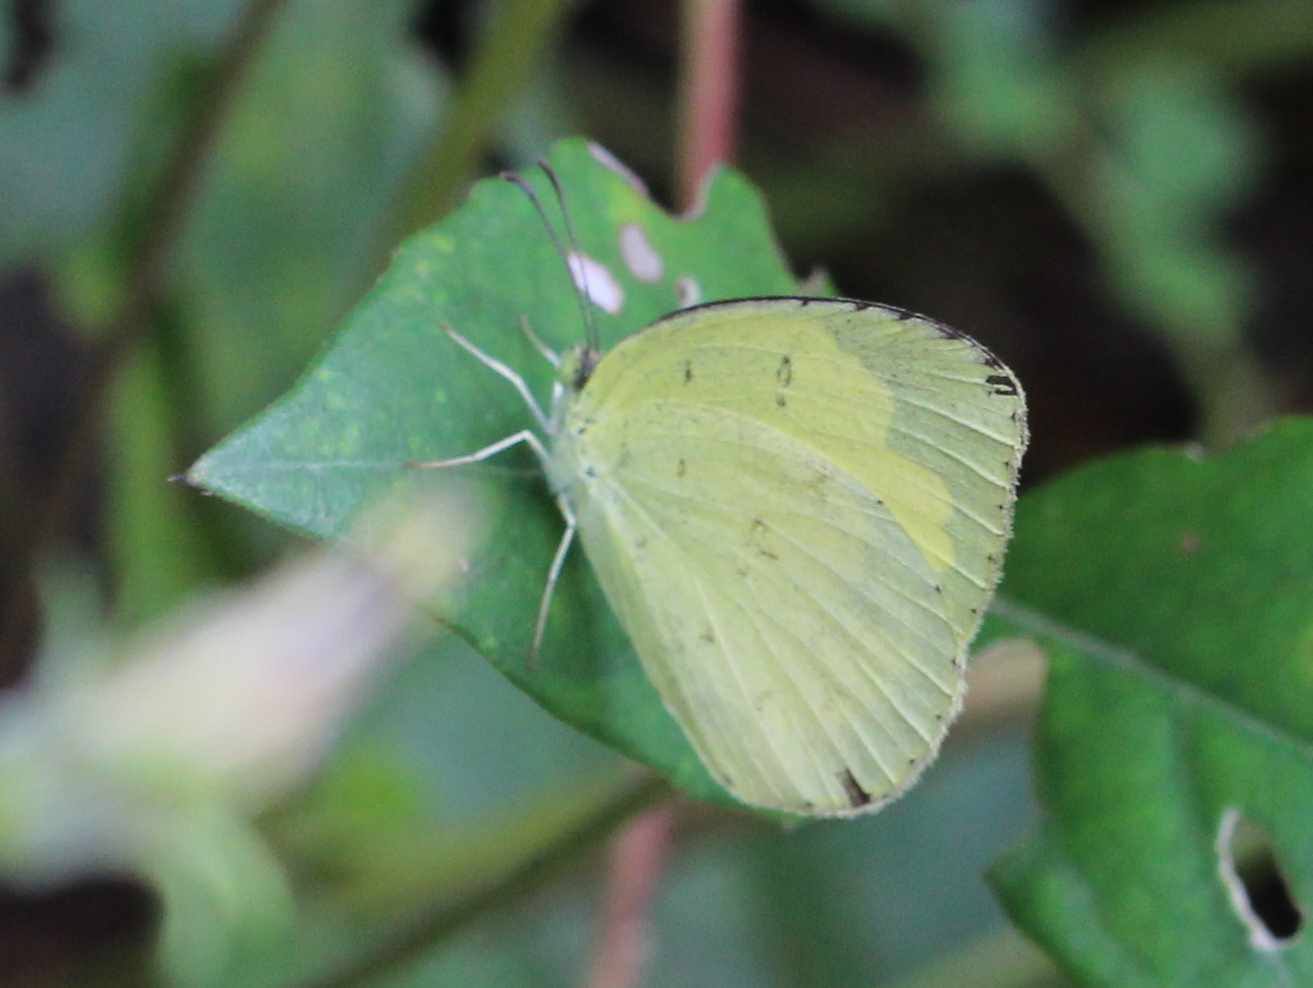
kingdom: Animalia
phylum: Arthropoda
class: Insecta
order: Lepidoptera
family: Pieridae
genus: Eurema
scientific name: Eurema hecabe
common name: Pale grass yellow
